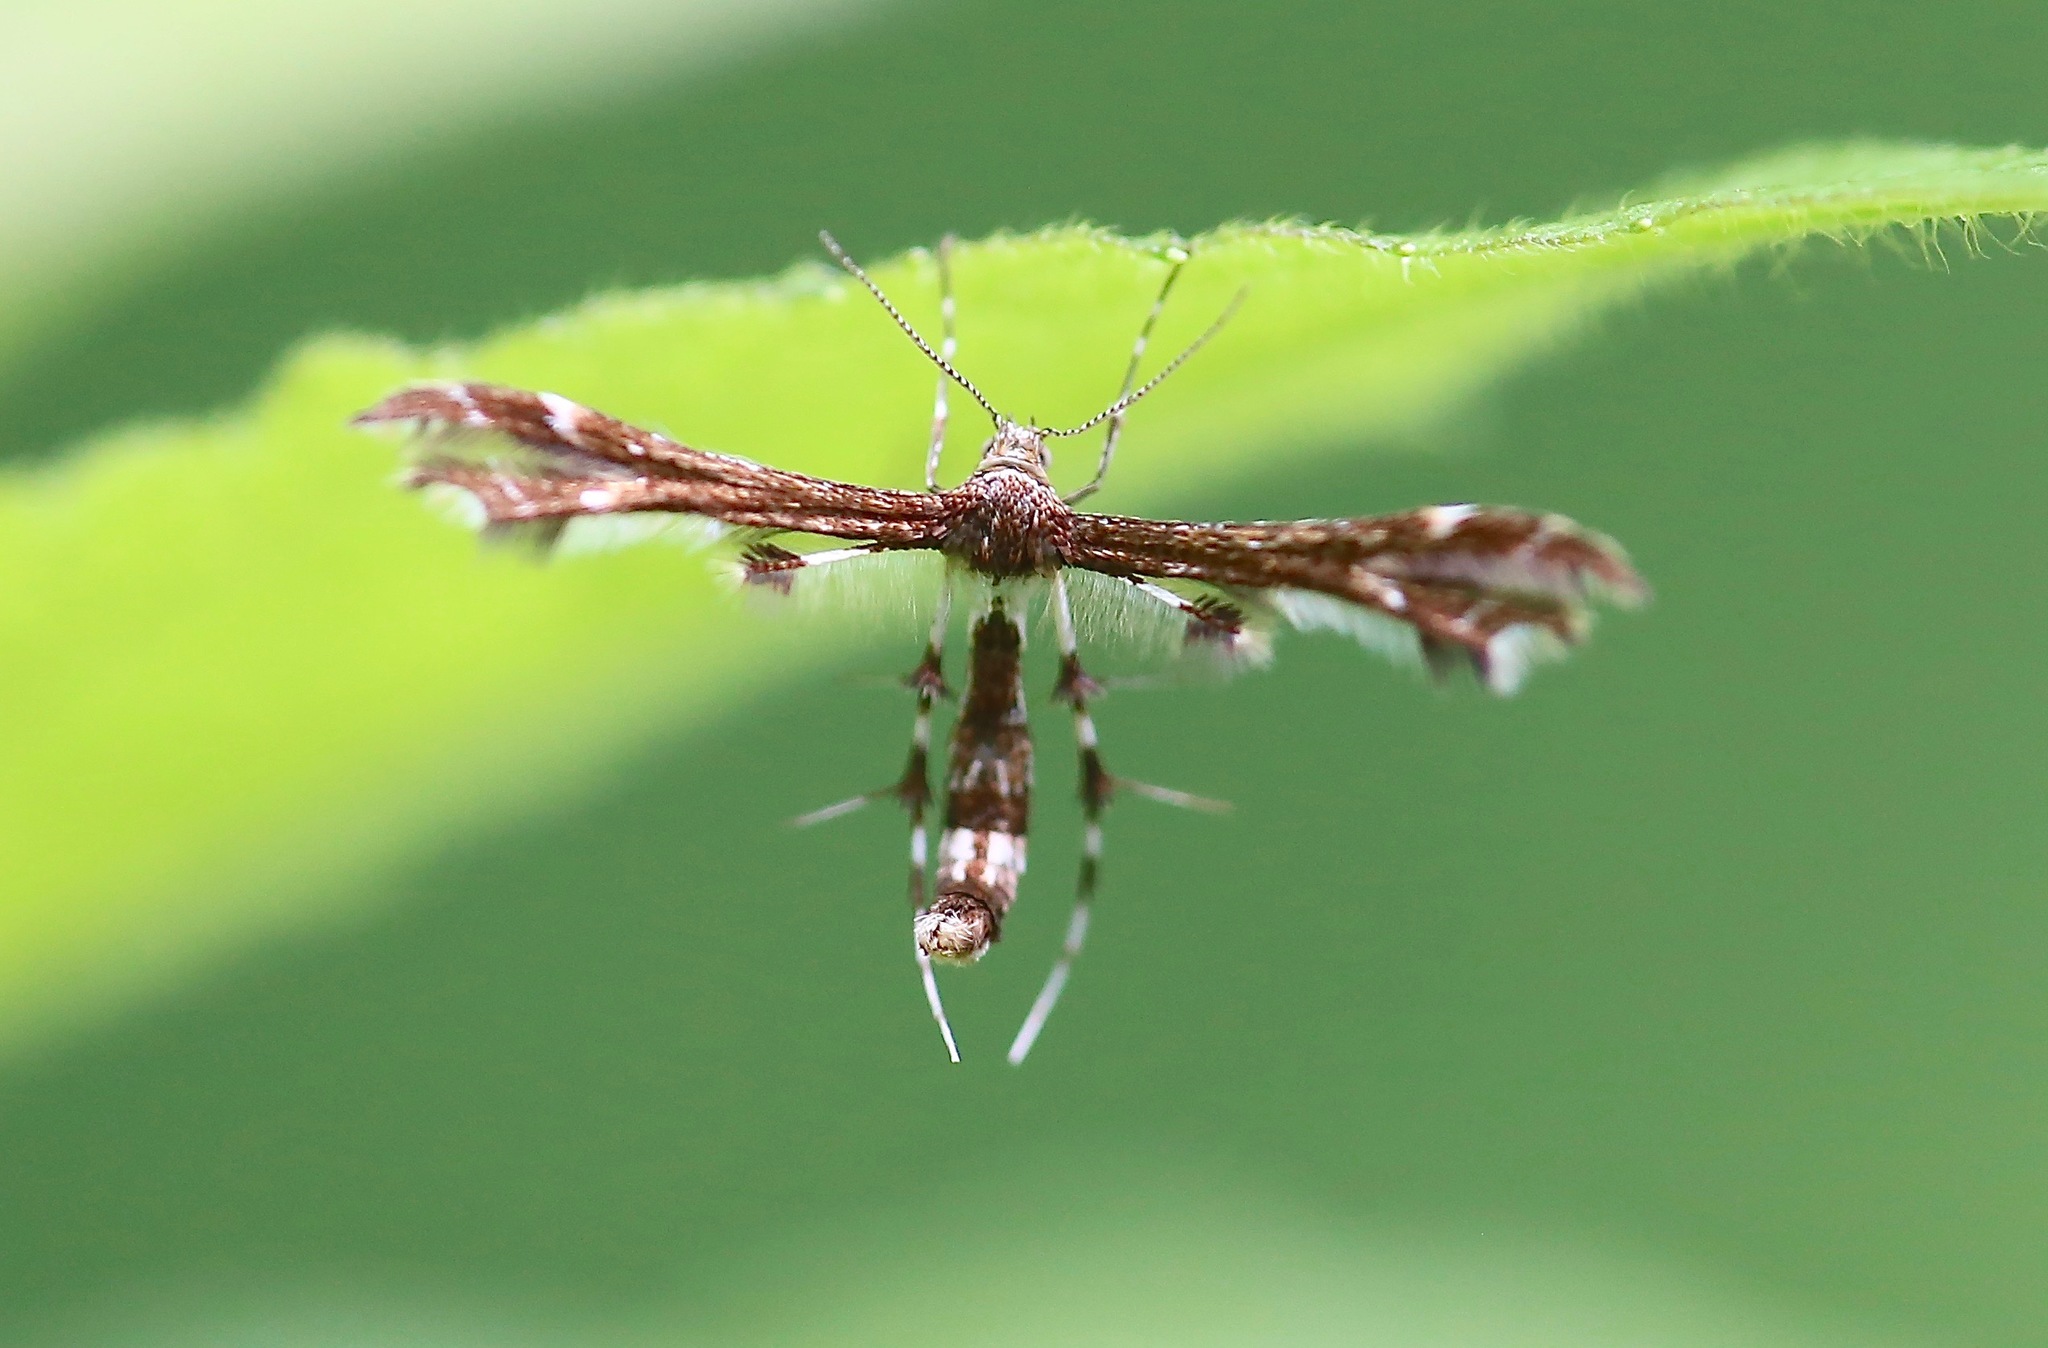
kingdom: Animalia
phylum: Arthropoda
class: Insecta
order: Lepidoptera
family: Pterophoridae
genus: Geina
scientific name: Geina
